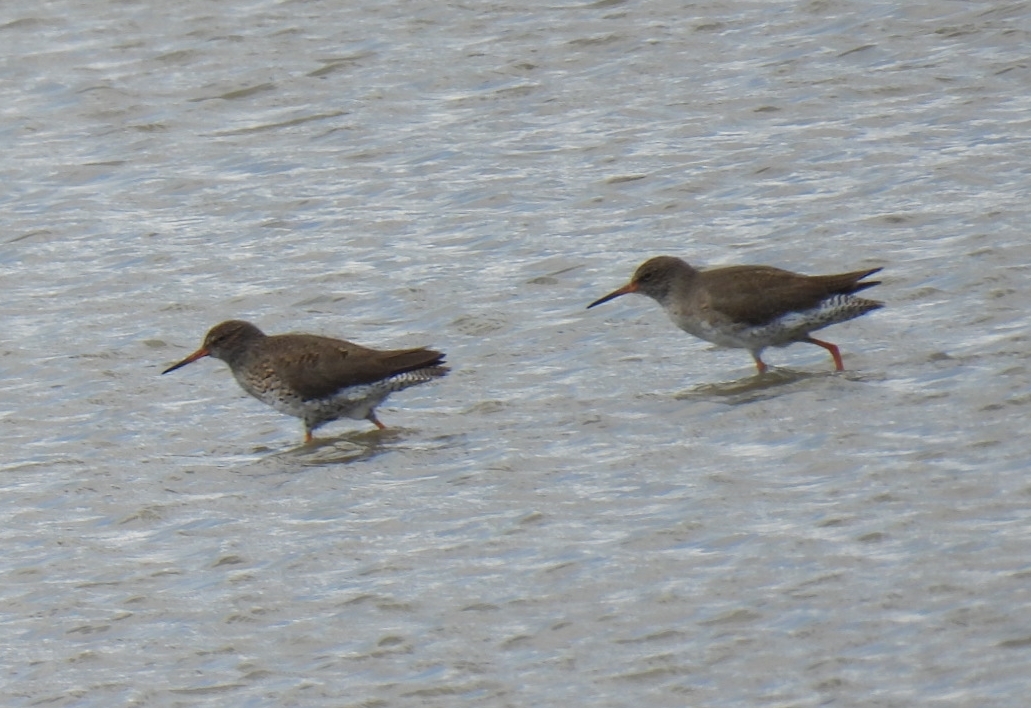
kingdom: Animalia
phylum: Chordata
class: Aves
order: Charadriiformes
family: Scolopacidae
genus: Tringa
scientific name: Tringa totanus
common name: Common redshank
